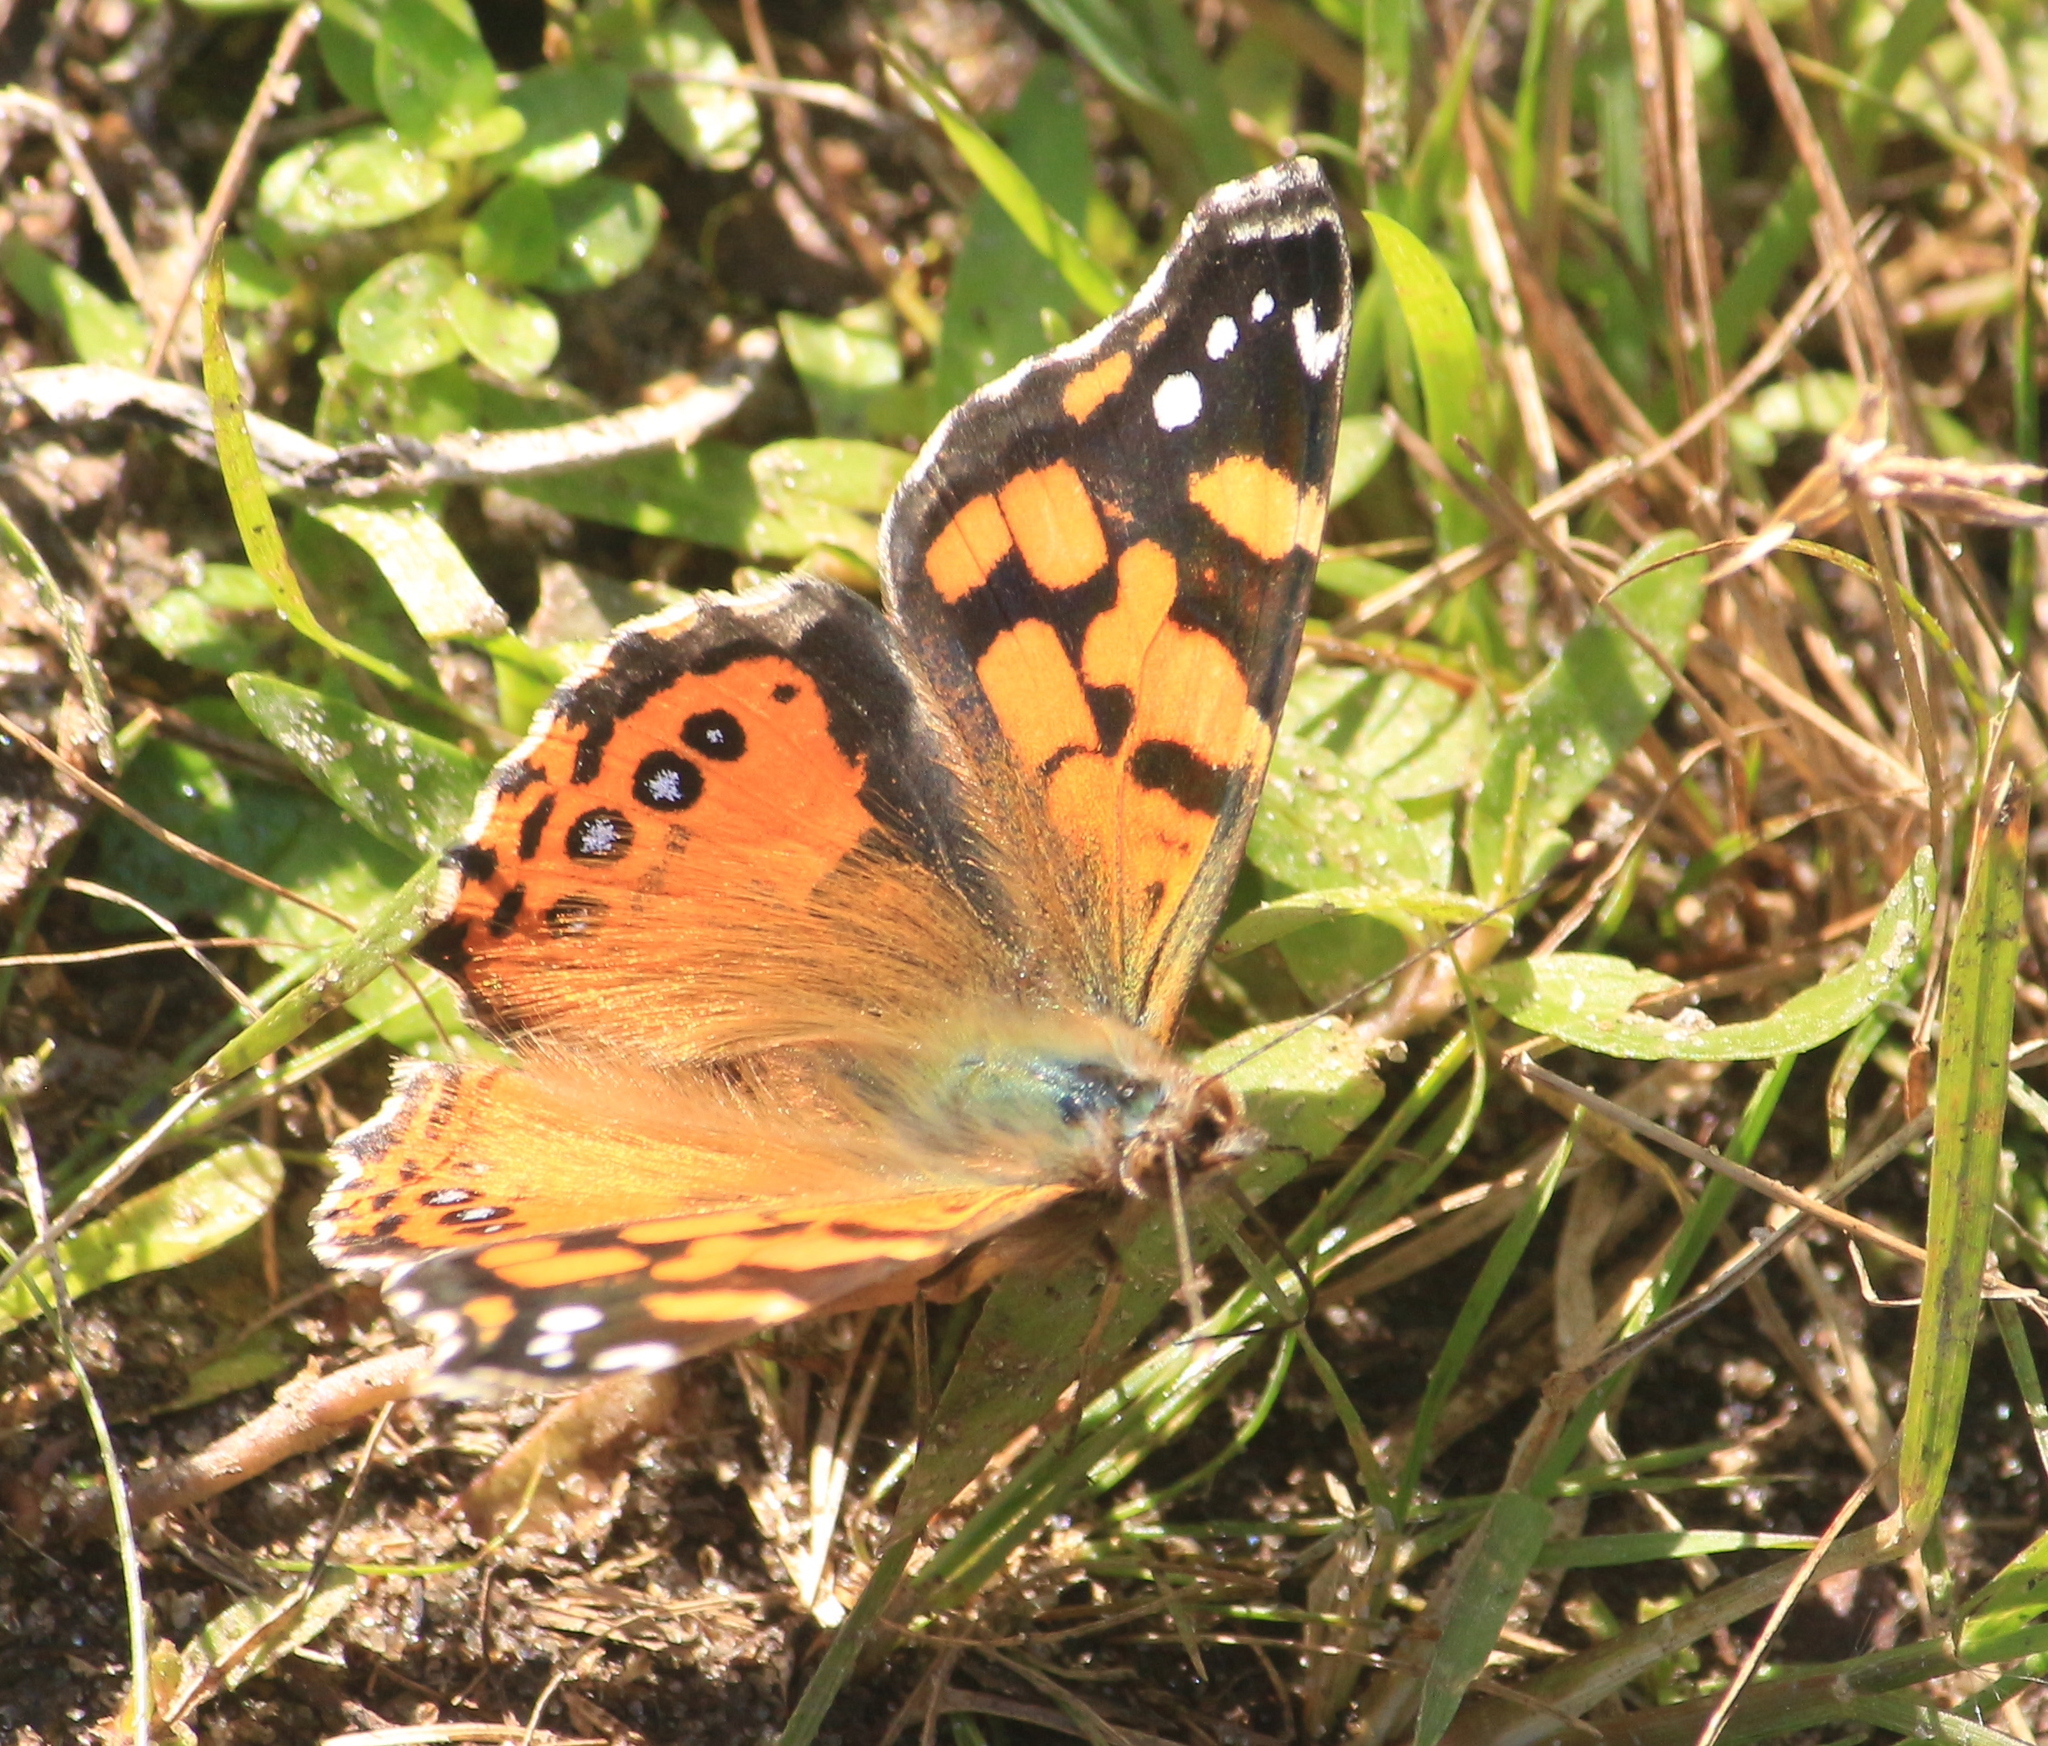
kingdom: Animalia
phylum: Arthropoda
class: Insecta
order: Lepidoptera
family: Nymphalidae
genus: Vanessa
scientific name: Vanessa carye
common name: Subtropical lady
